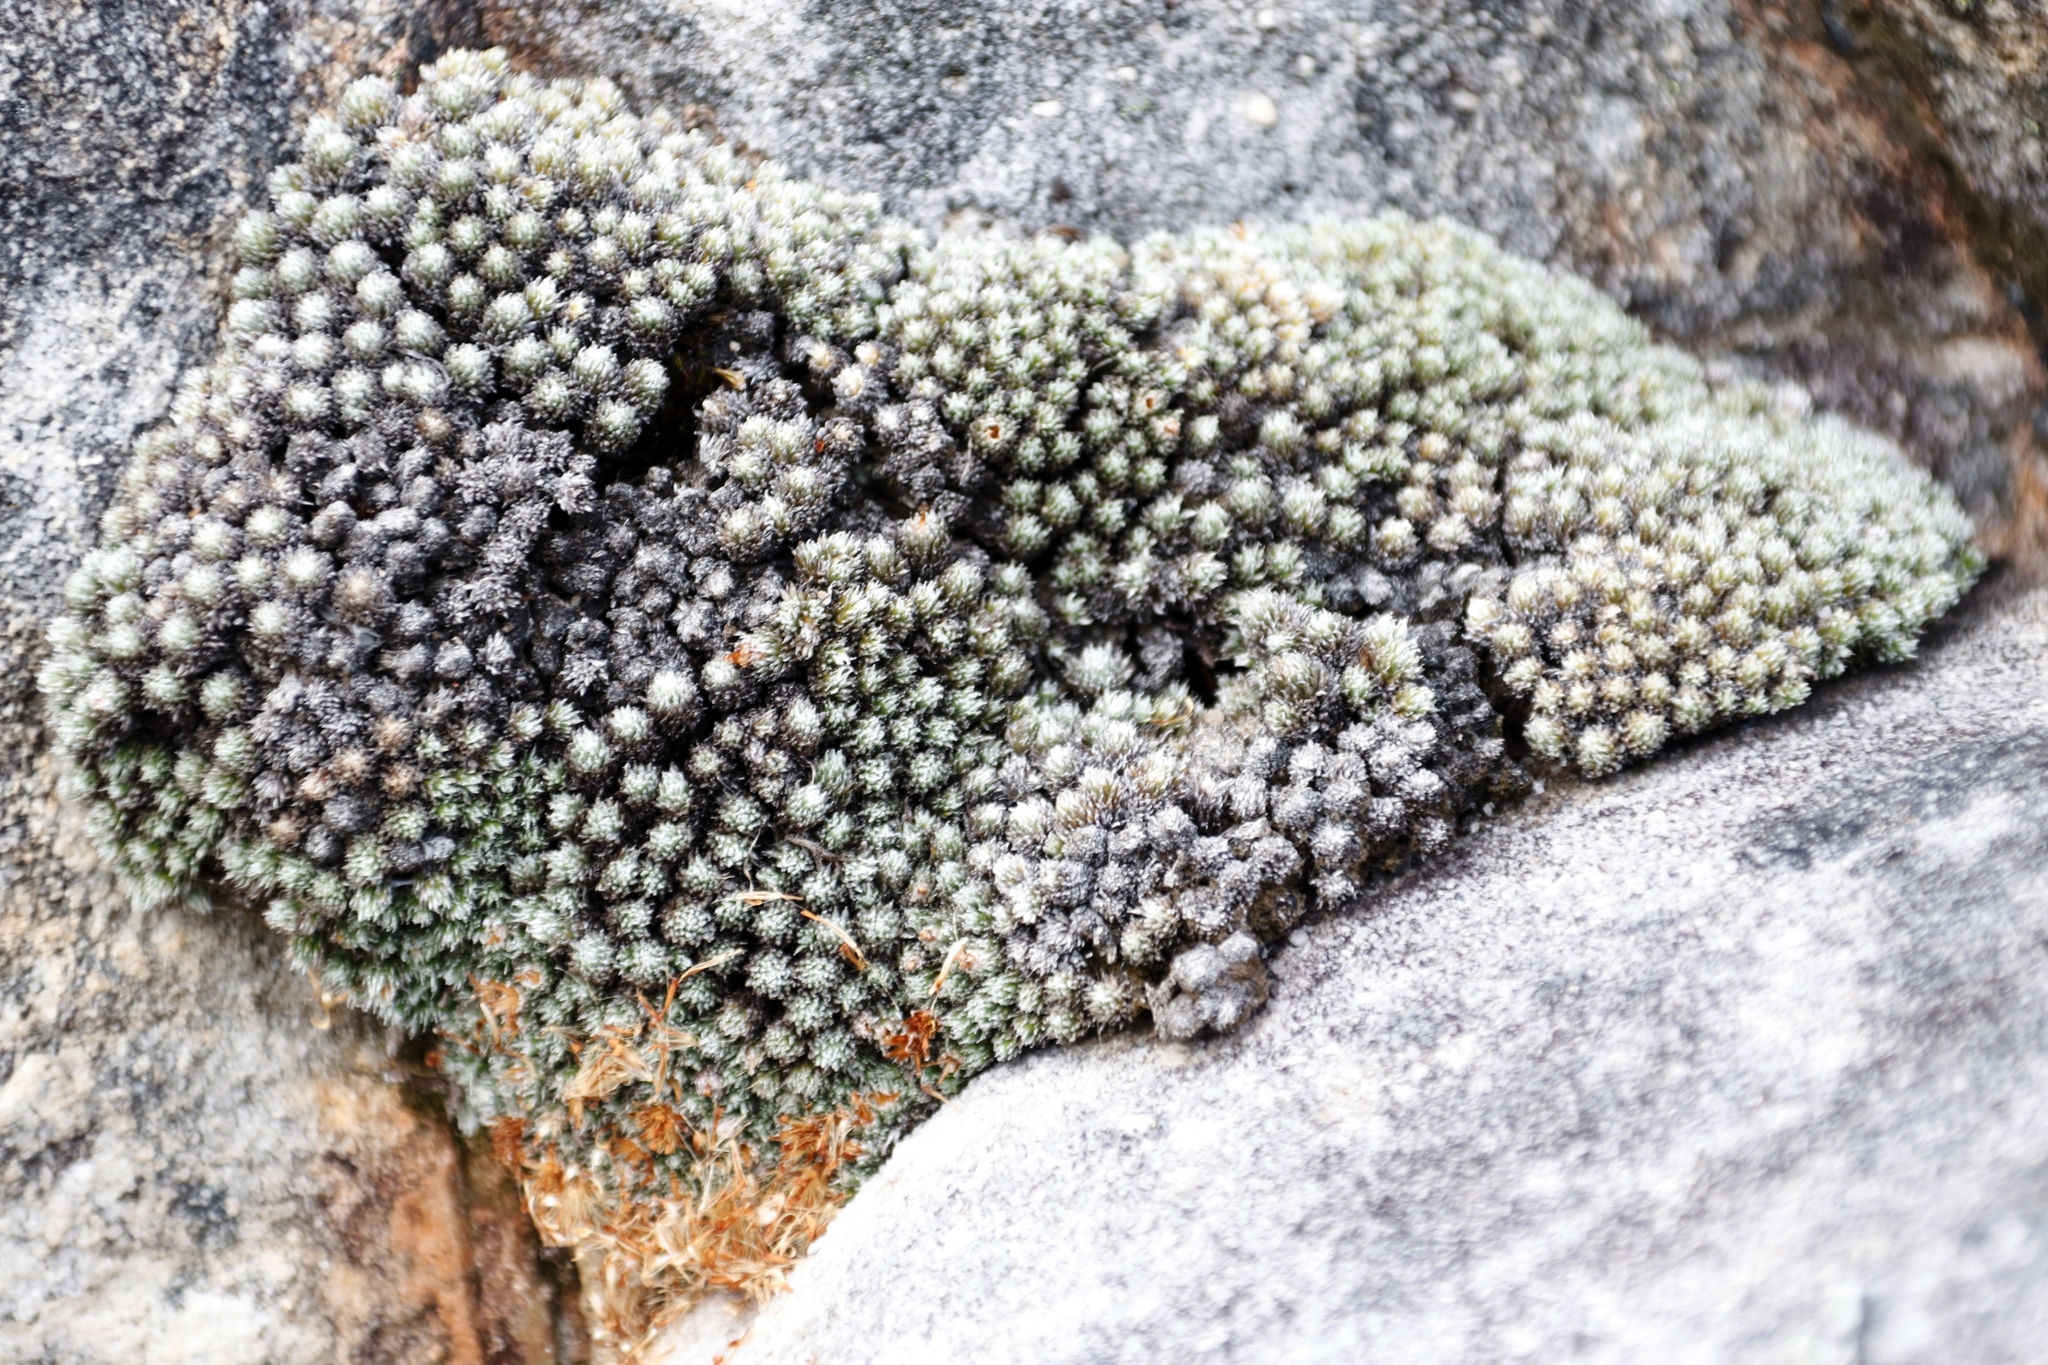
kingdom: Plantae
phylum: Tracheophyta
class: Magnoliopsida
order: Asterales
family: Asteraceae
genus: Muscosomorphe
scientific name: Muscosomorphe aretioides
